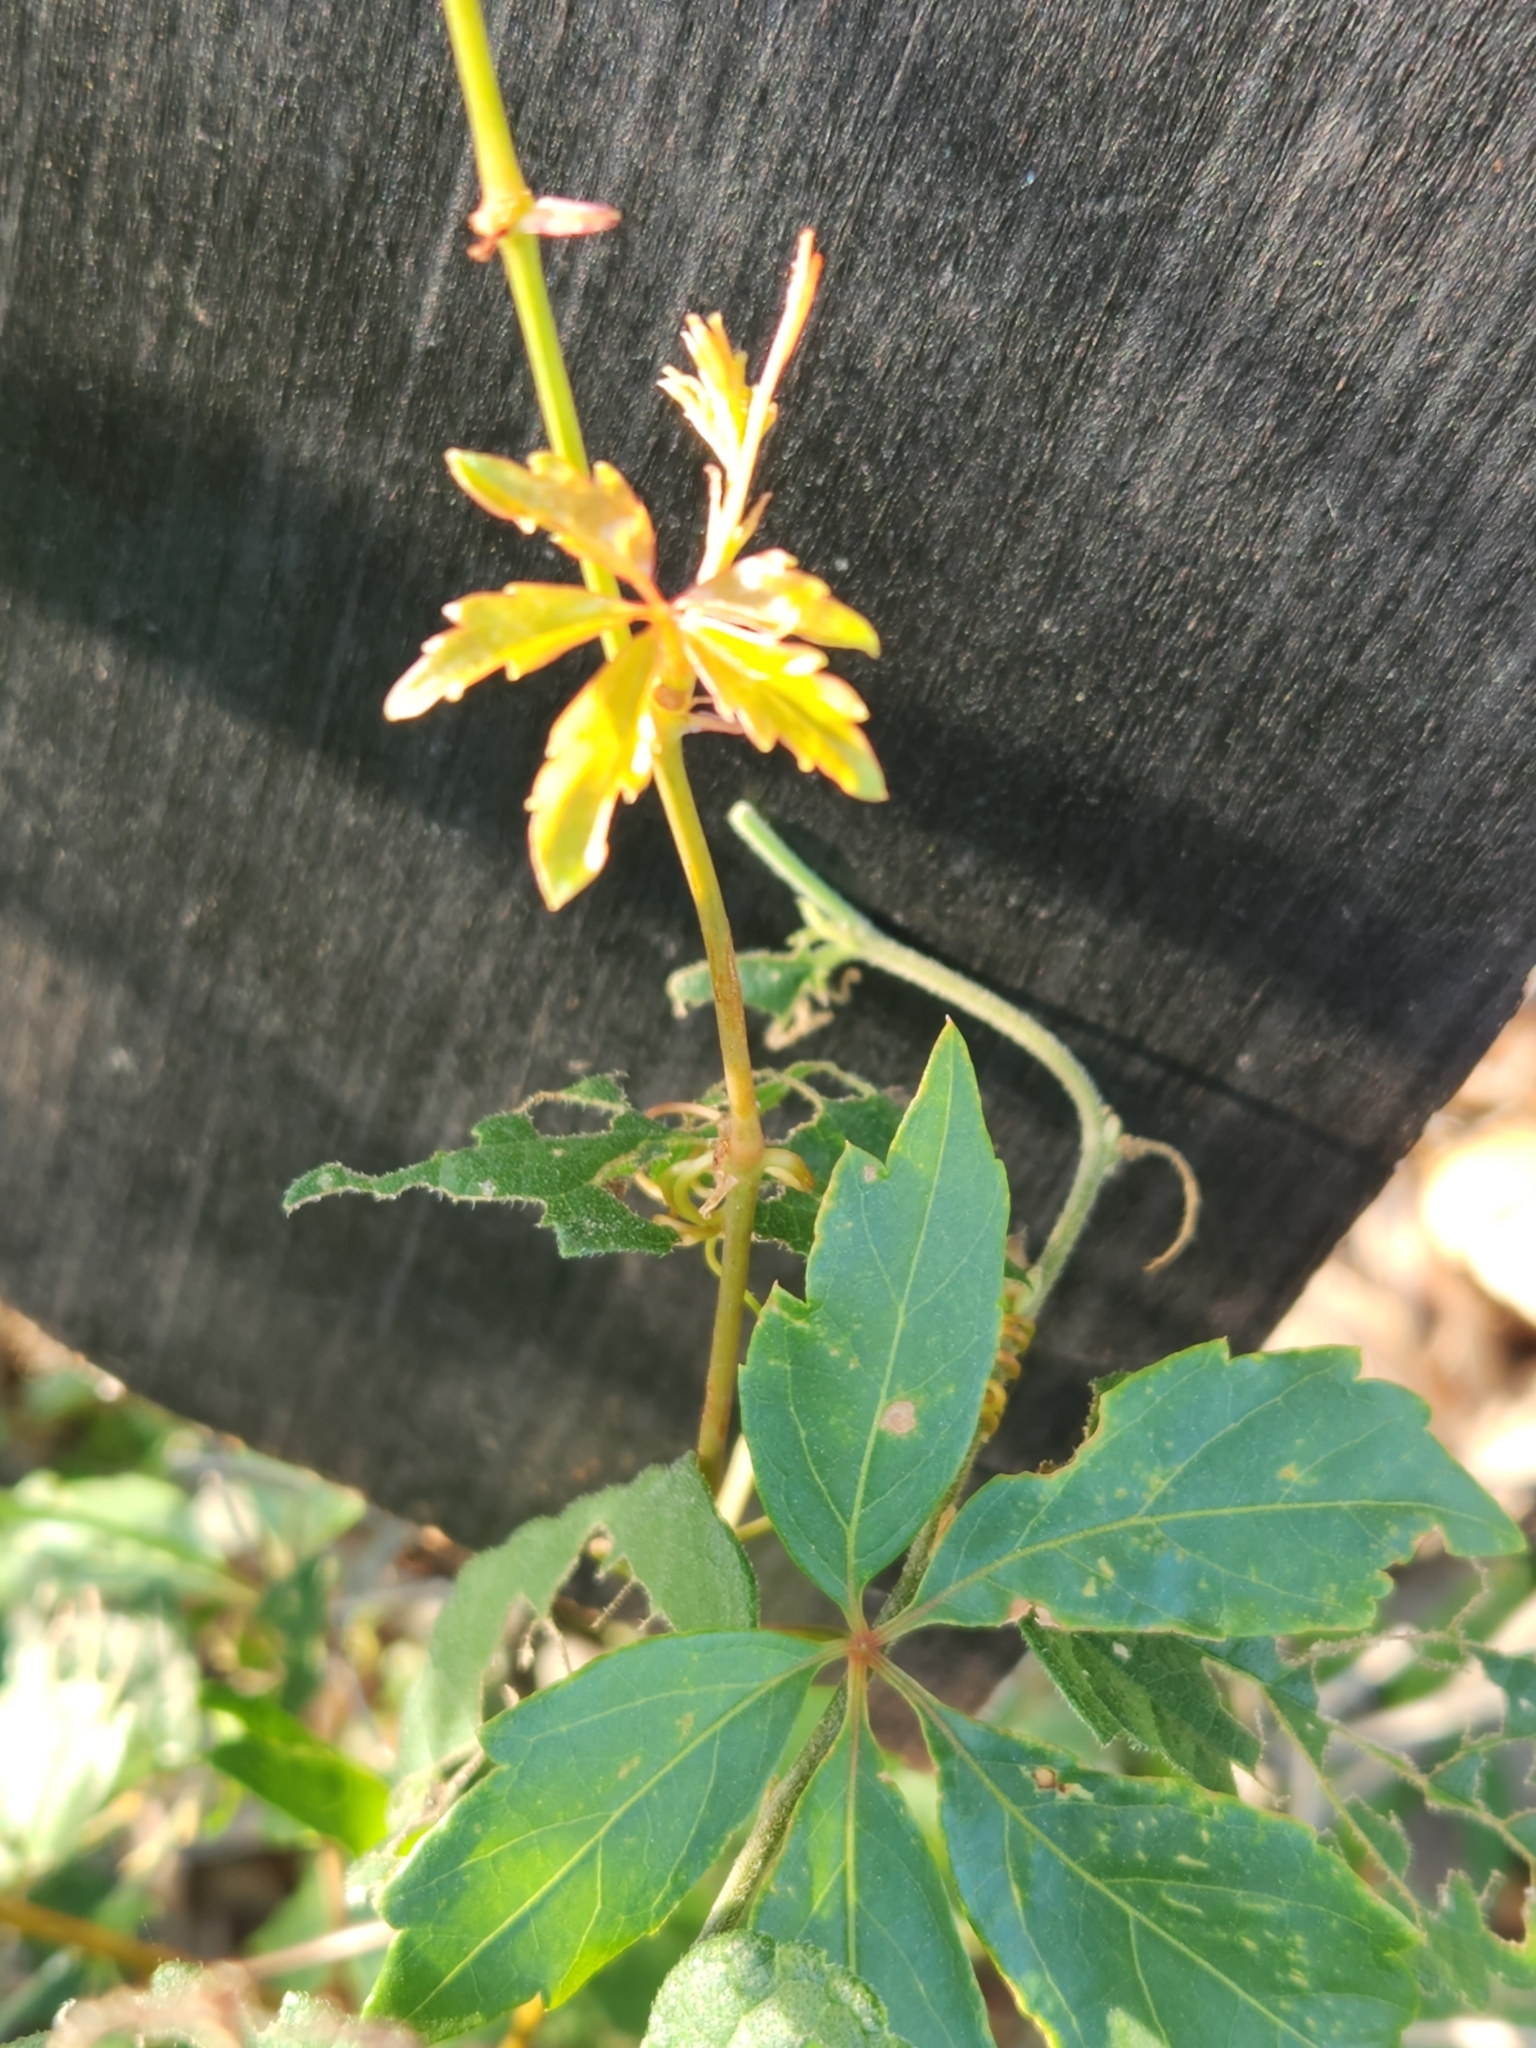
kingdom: Plantae
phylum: Tracheophyta
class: Magnoliopsida
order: Vitales
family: Vitaceae
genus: Parthenocissus
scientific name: Parthenocissus quinquefolia
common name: Virginia-creeper
